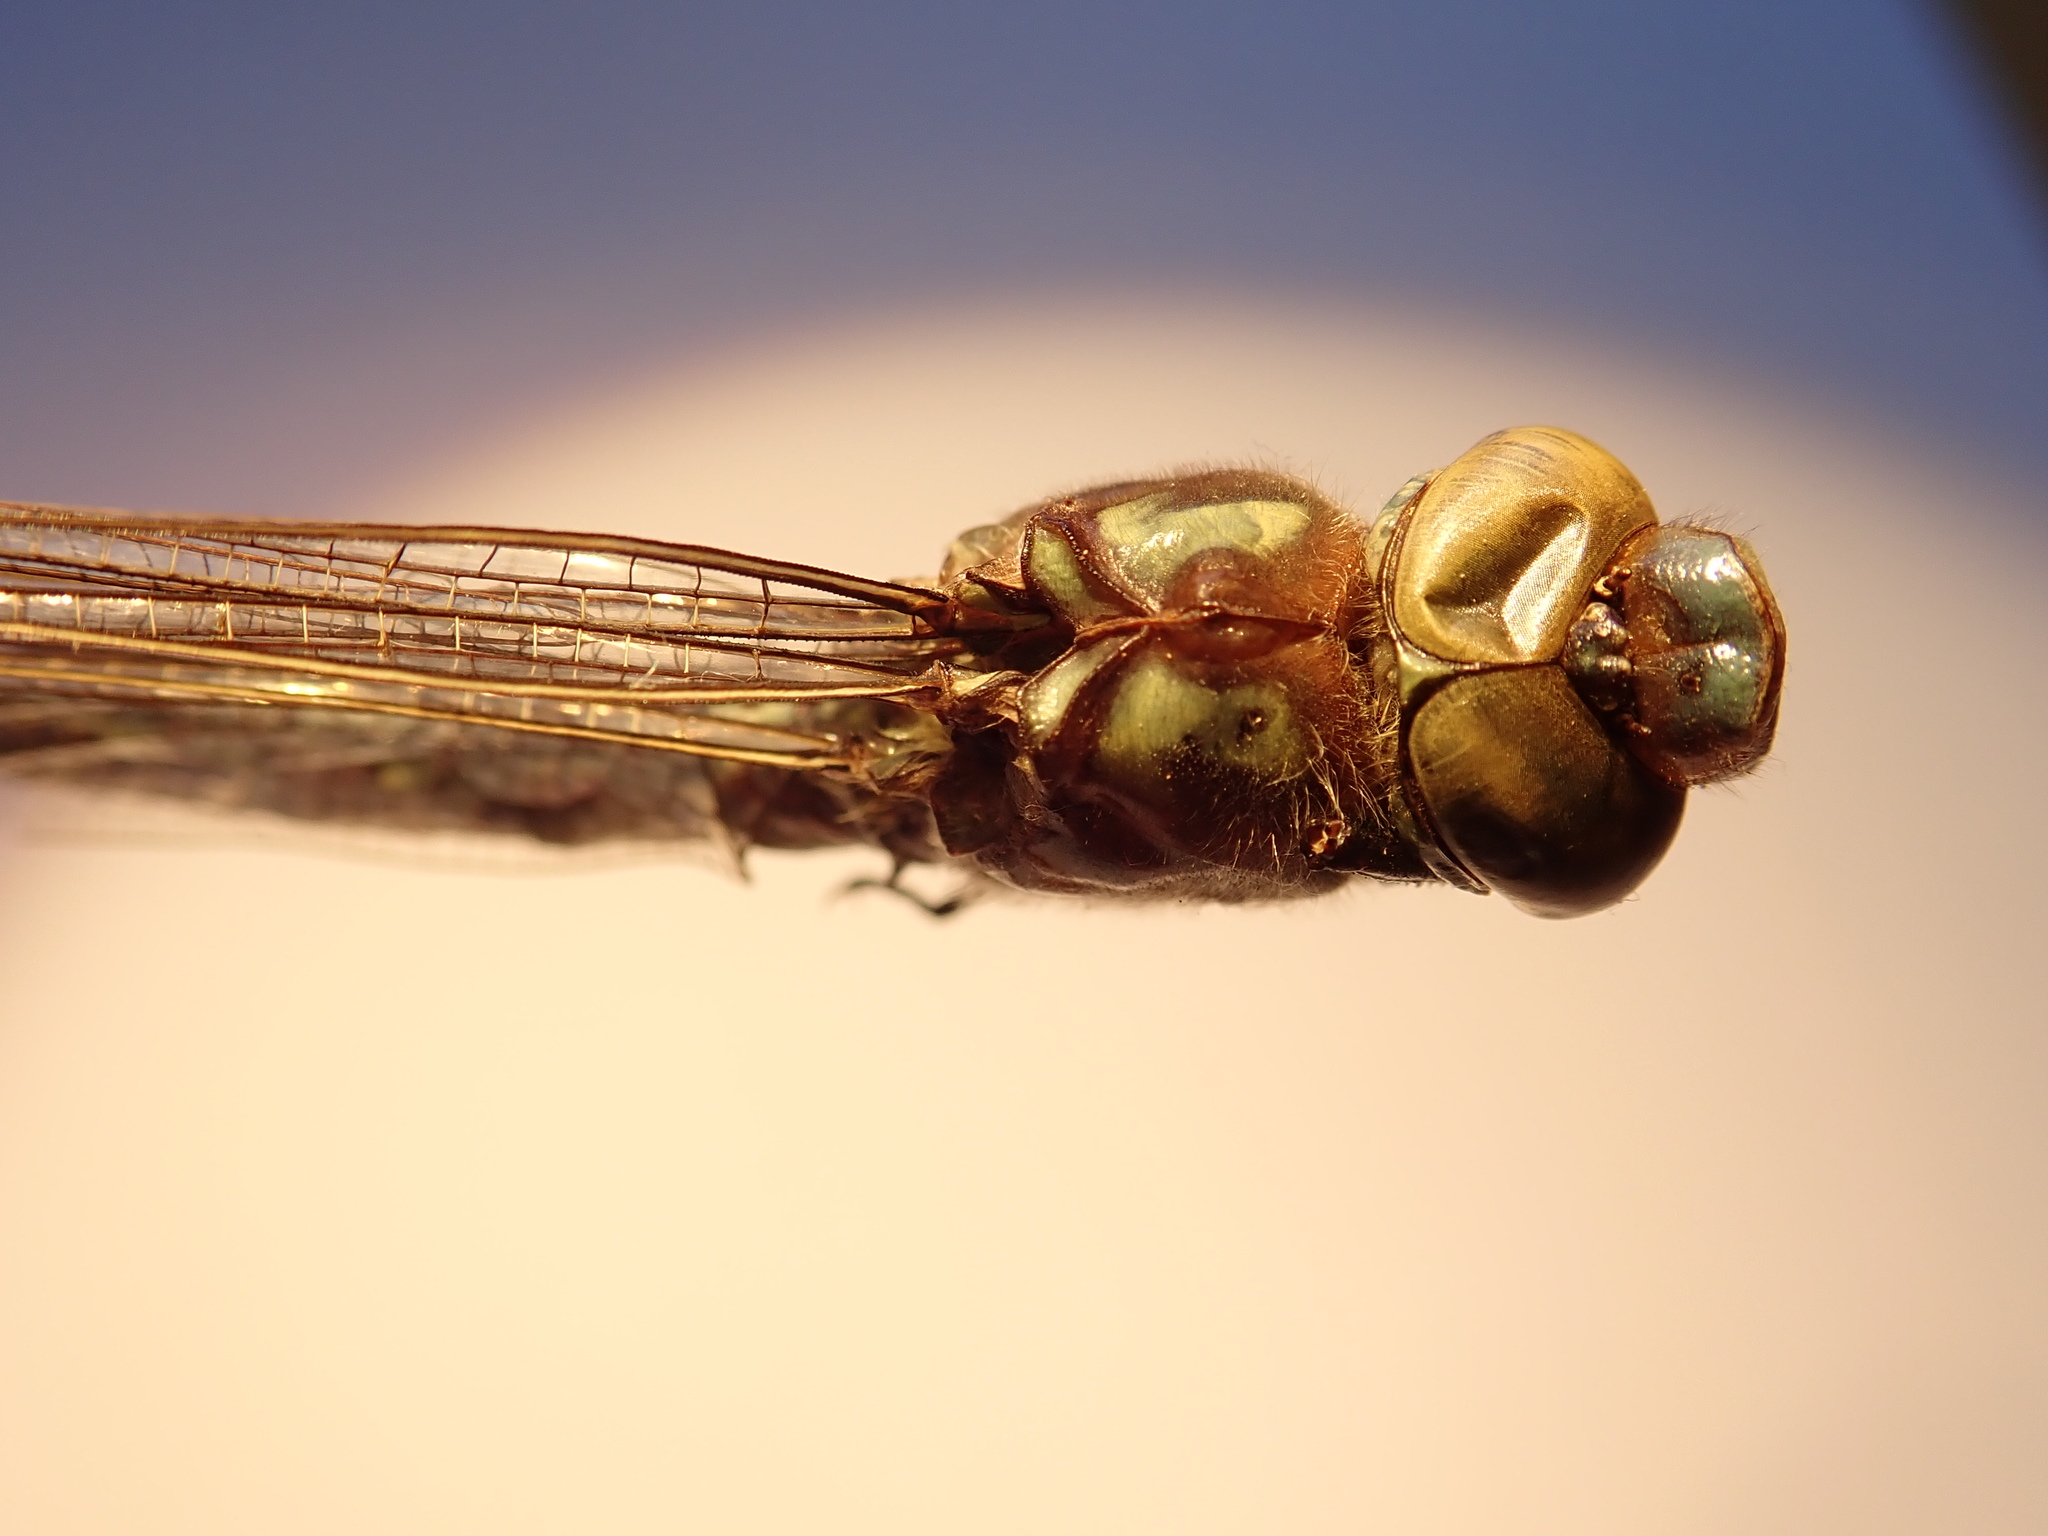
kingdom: Animalia
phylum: Arthropoda
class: Insecta
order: Odonata
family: Aeshnidae
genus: Nasiaeschna
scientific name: Nasiaeschna pentacantha
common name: Cyrano darner
